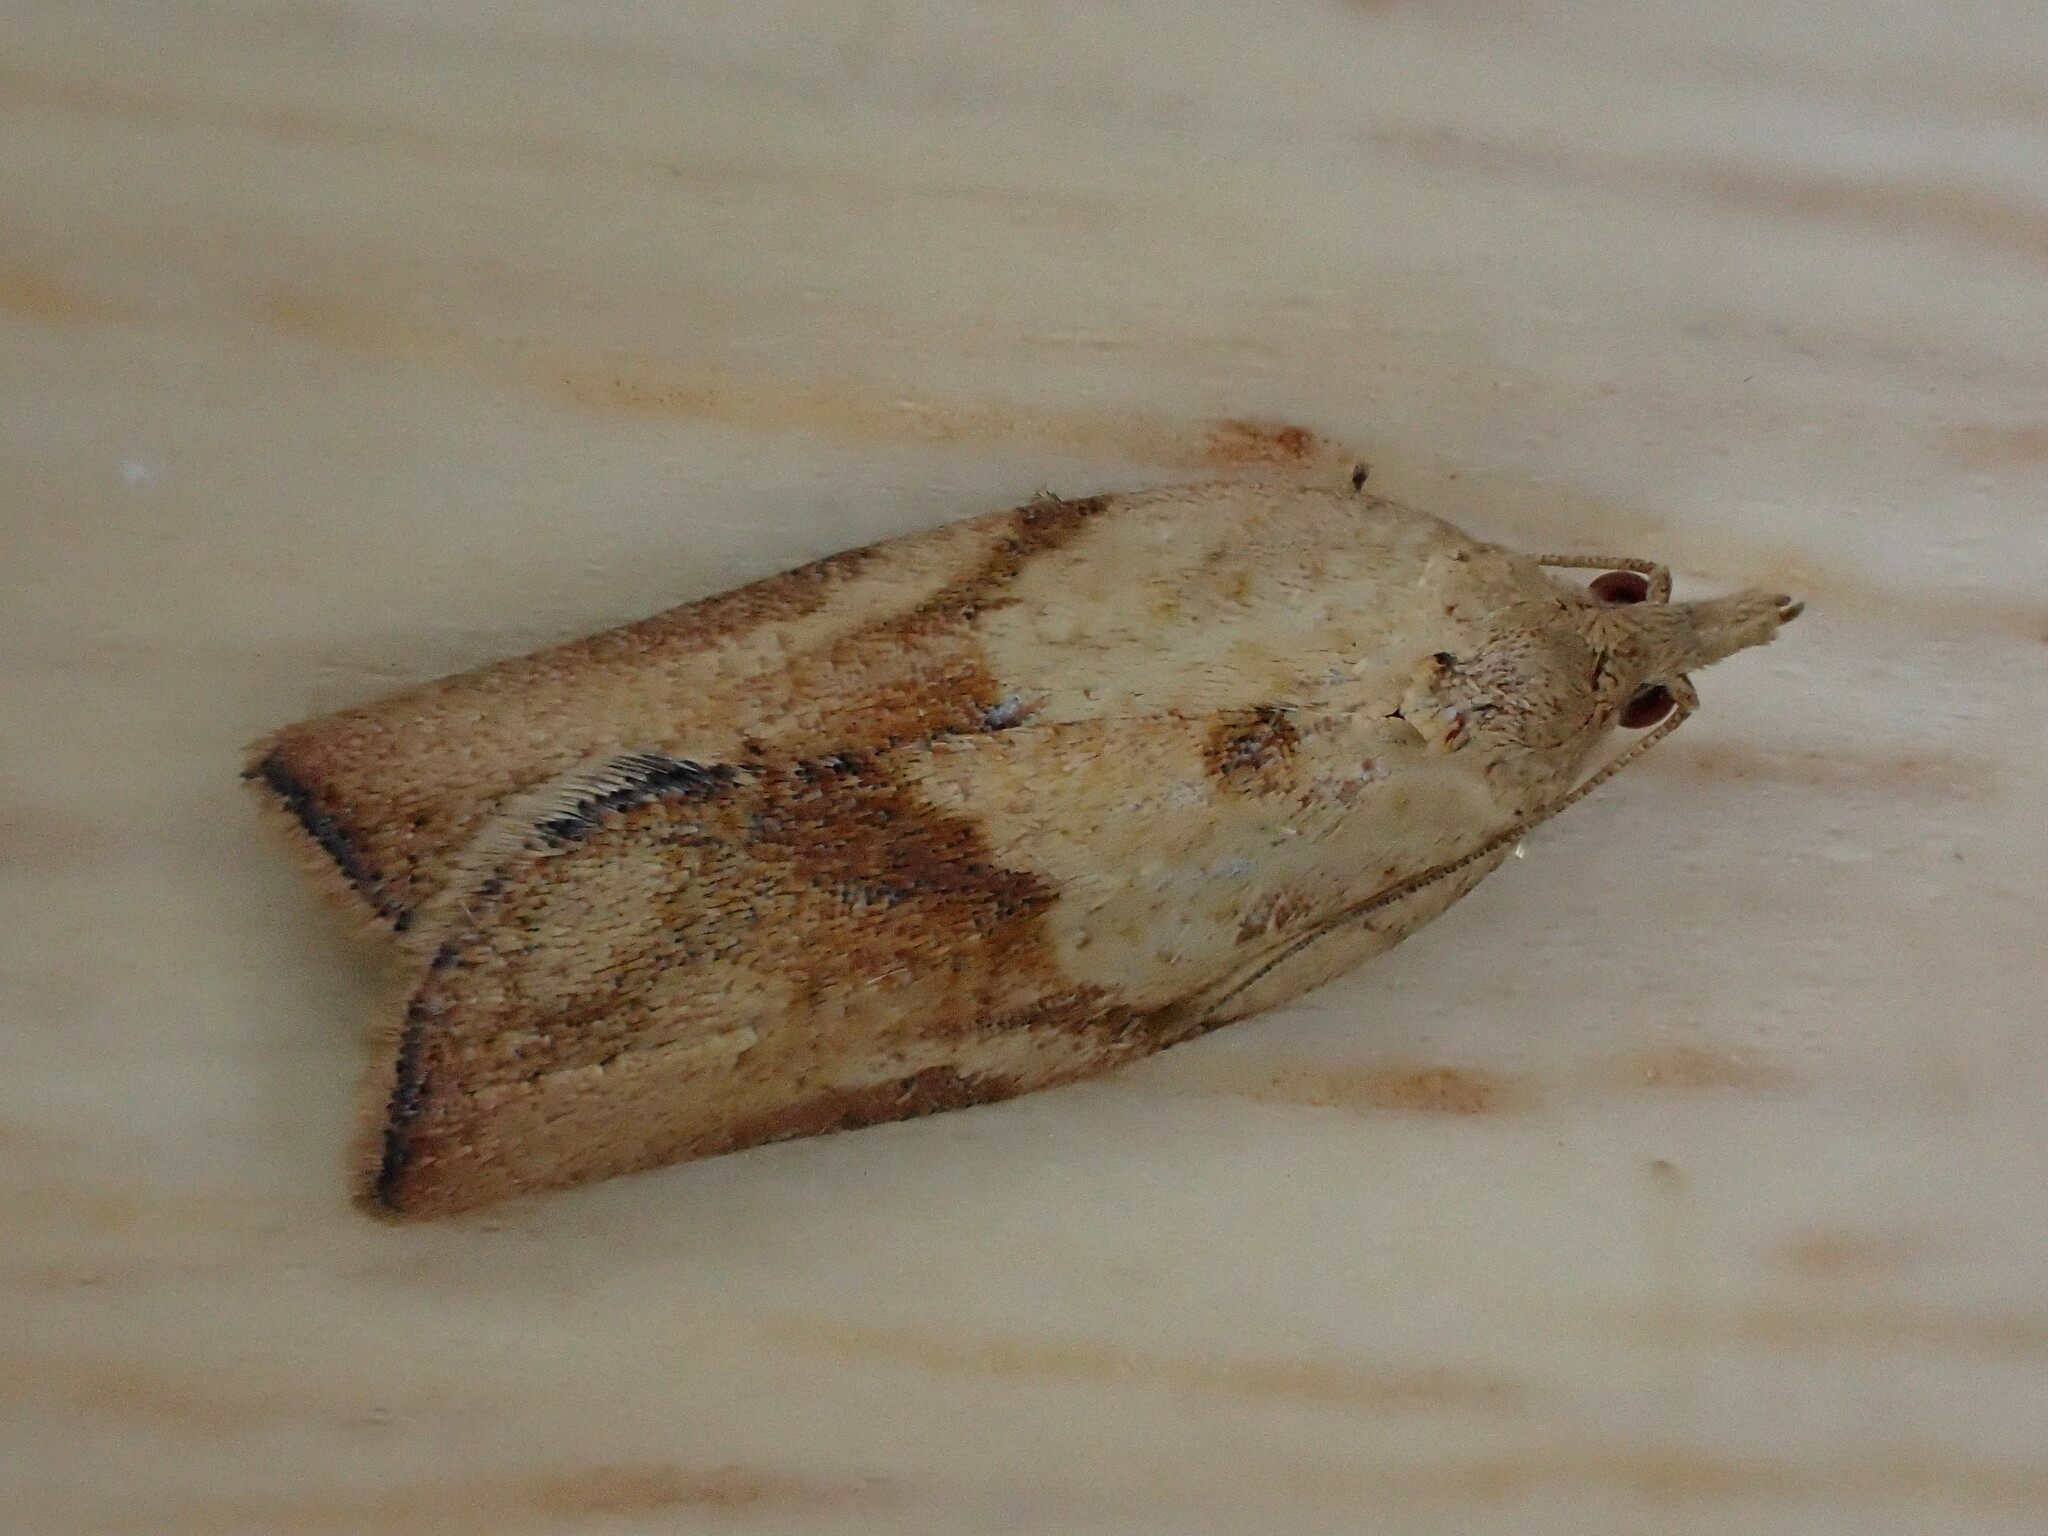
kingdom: Animalia
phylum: Arthropoda
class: Insecta
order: Lepidoptera
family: Tortricidae
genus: Epiphyas
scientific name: Epiphyas postvittana
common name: Light brown apple moth
